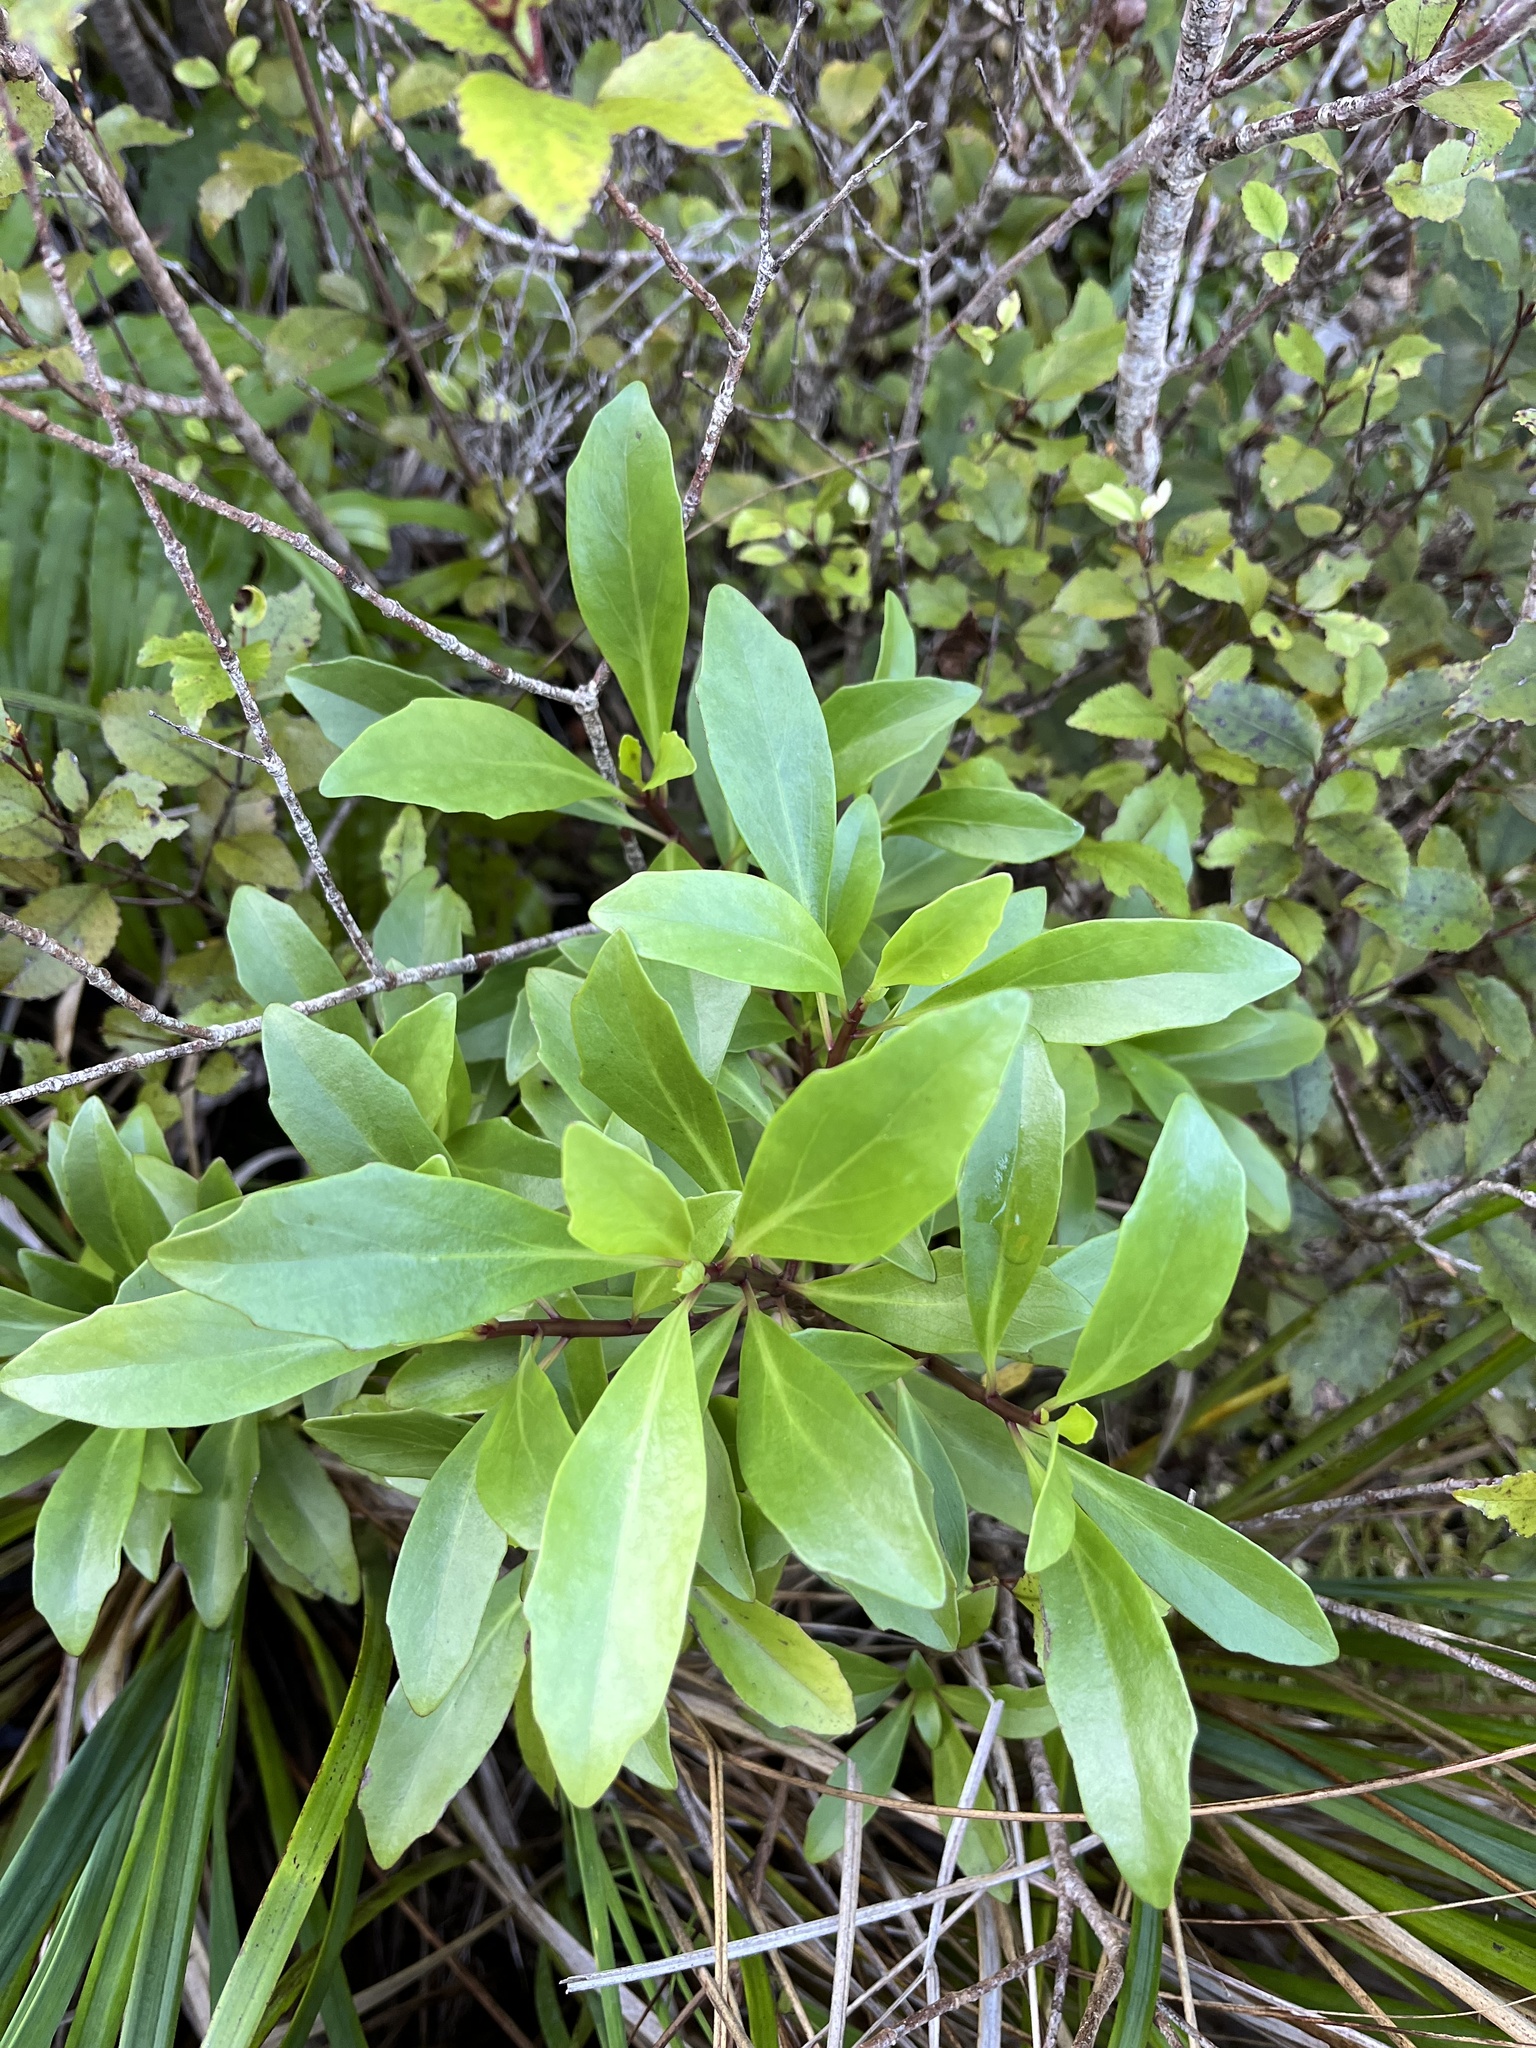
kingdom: Plantae
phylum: Tracheophyta
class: Magnoliopsida
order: Asterales
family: Asteraceae
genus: Brachyglottis
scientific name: Brachyglottis kirkii
